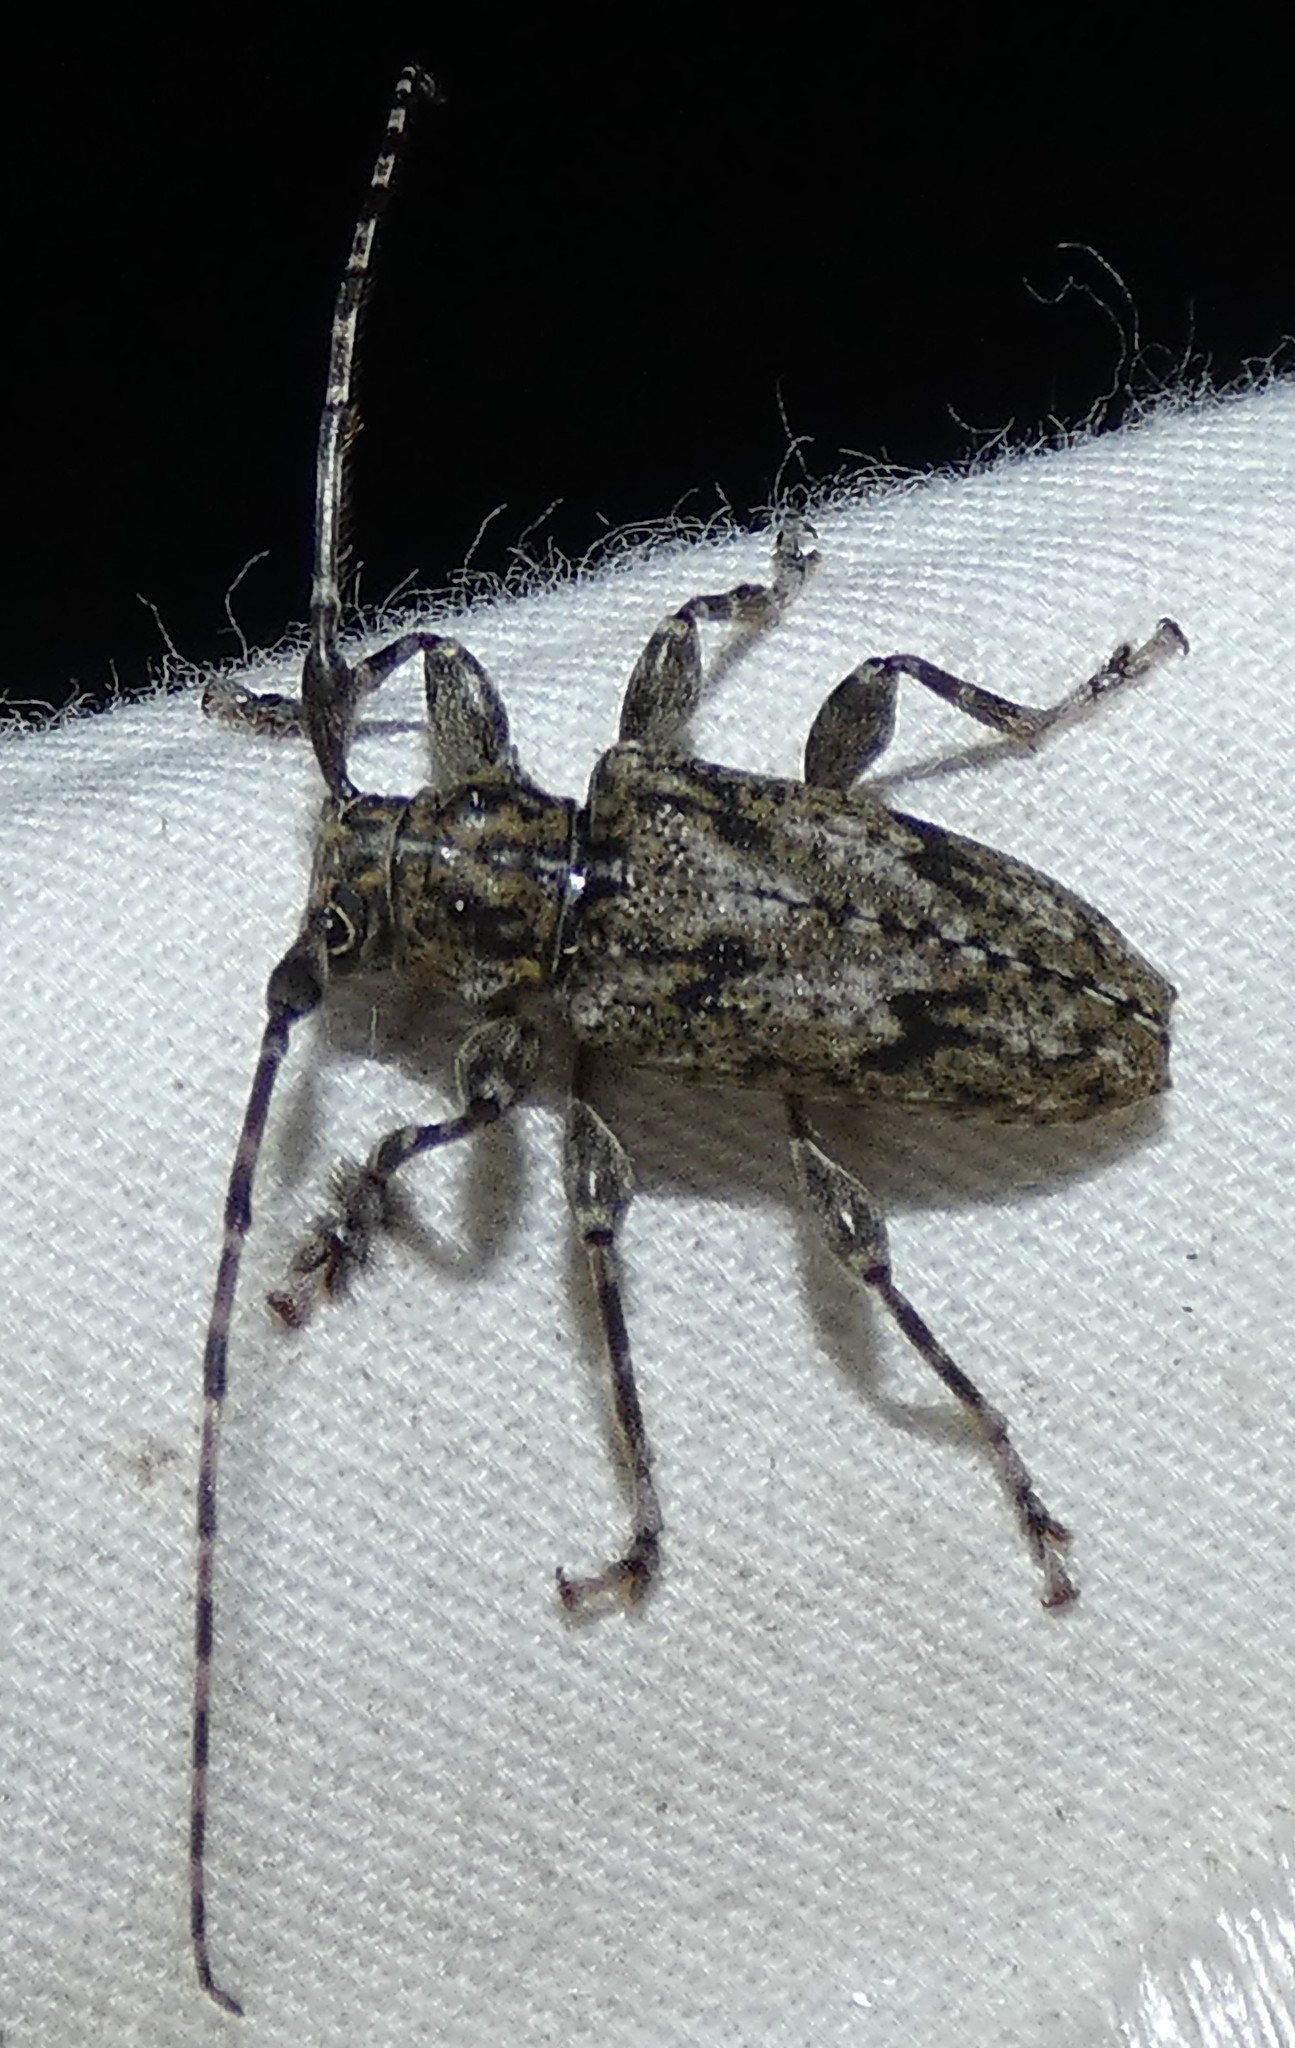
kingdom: Animalia
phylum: Arthropoda
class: Insecta
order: Coleoptera
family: Cerambycidae
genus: Aegomorphus
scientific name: Aegomorphus modestus
